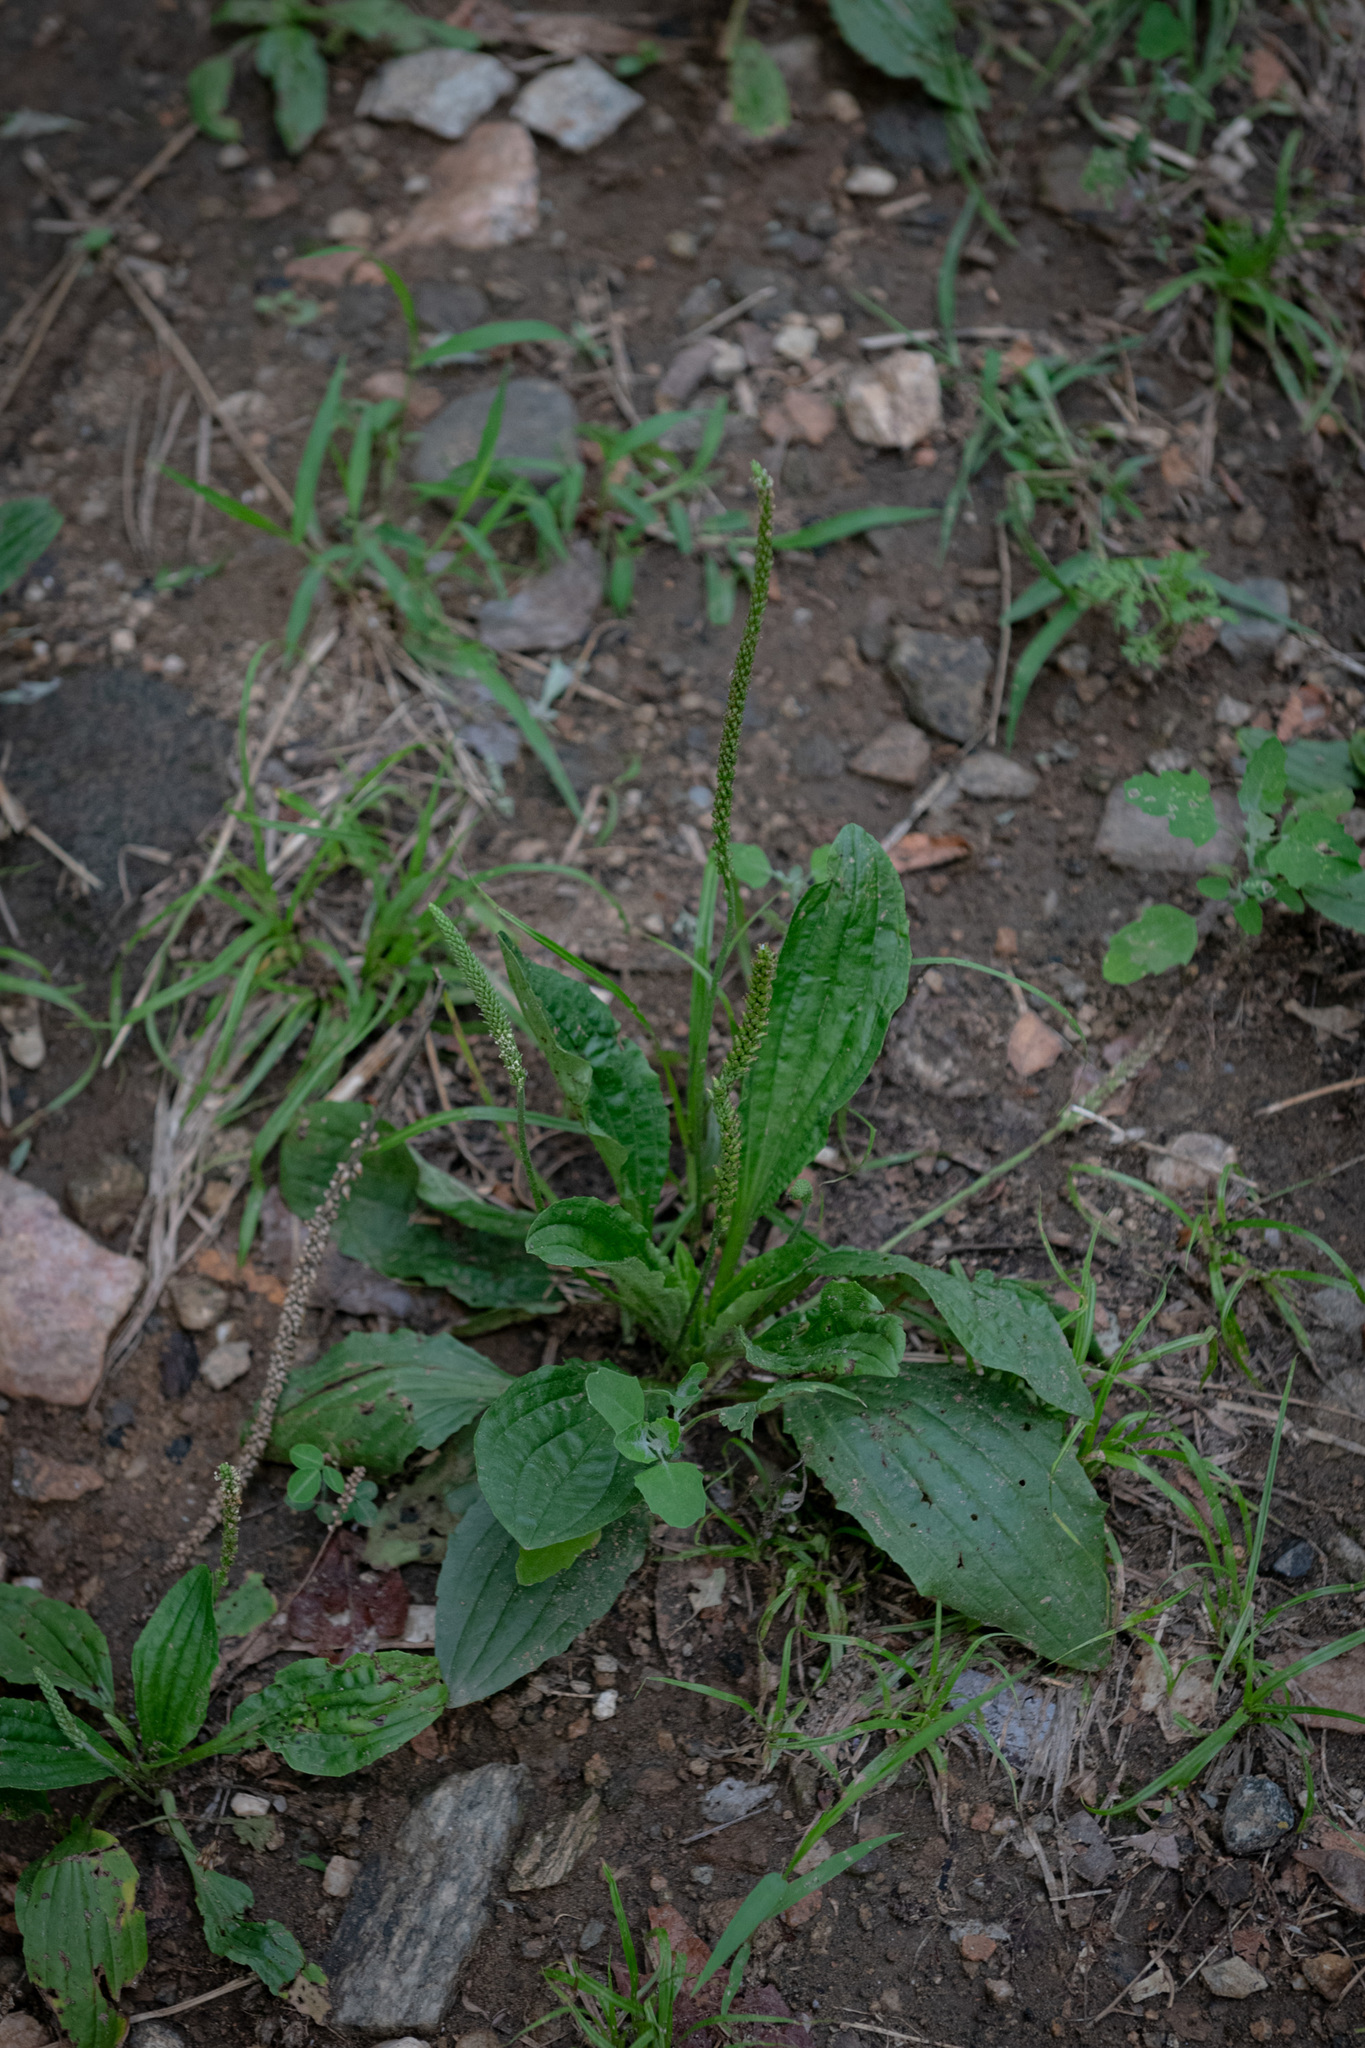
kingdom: Plantae
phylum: Tracheophyta
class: Magnoliopsida
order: Lamiales
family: Plantaginaceae
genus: Plantago
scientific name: Plantago asiatica
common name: Psyllium
